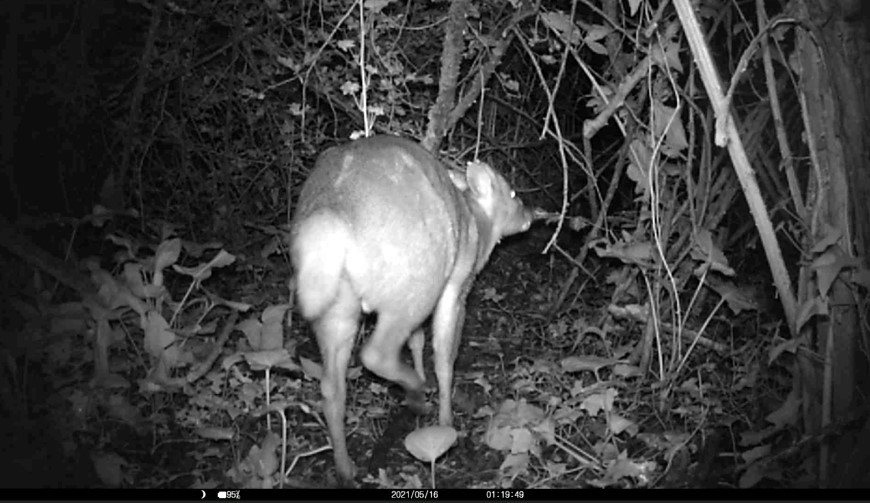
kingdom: Animalia
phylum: Chordata
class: Mammalia
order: Artiodactyla
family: Cervidae
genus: Muntiacus
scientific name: Muntiacus reevesi
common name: Reeves' muntjac
